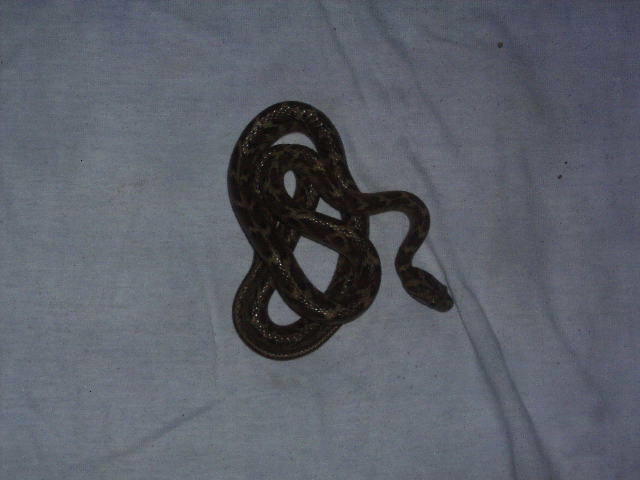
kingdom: Animalia
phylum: Chordata
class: Squamata
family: Colubridae
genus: Boiga
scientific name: Boiga trigonata
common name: Common cat snake
